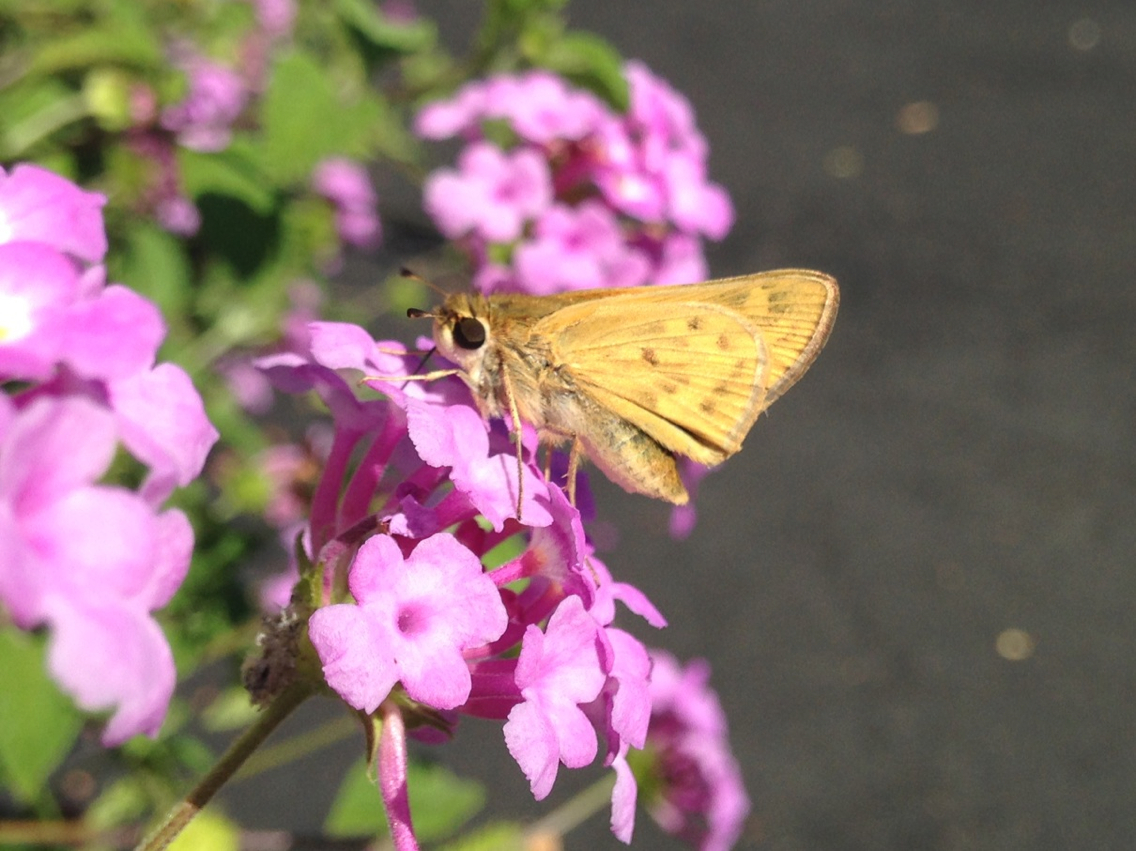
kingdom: Animalia
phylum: Arthropoda
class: Insecta
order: Lepidoptera
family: Hesperiidae
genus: Hylephila
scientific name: Hylephila phyleus
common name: Fiery skipper
